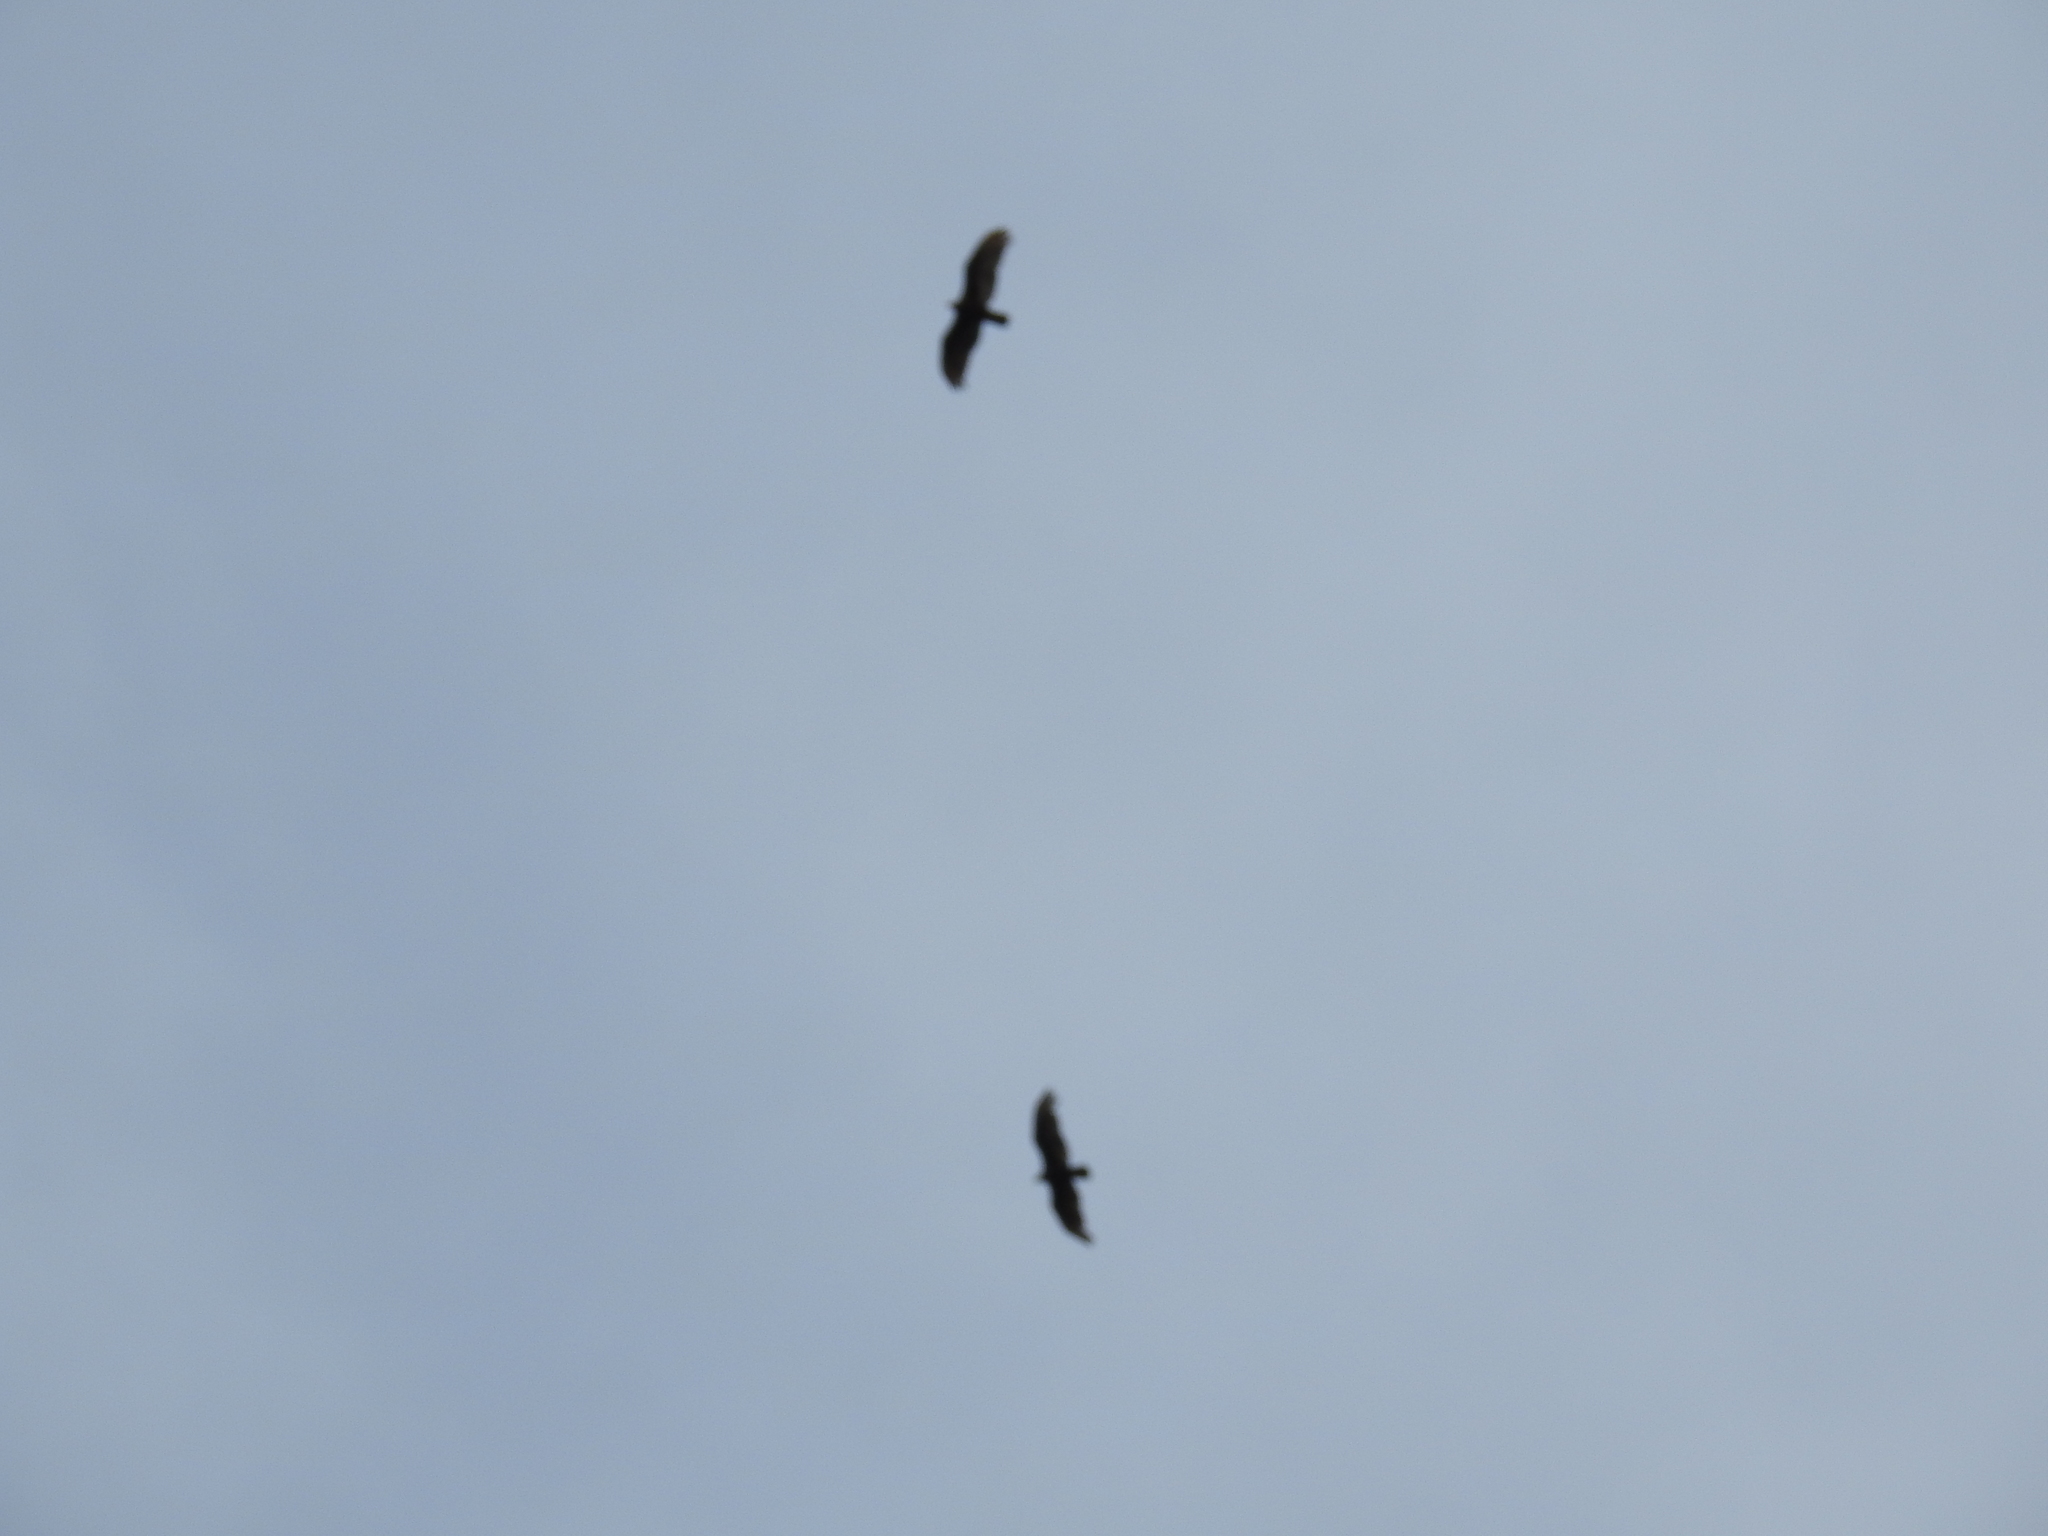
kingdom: Animalia
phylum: Chordata
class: Aves
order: Accipitriformes
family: Cathartidae
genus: Cathartes
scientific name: Cathartes aura
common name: Turkey vulture
